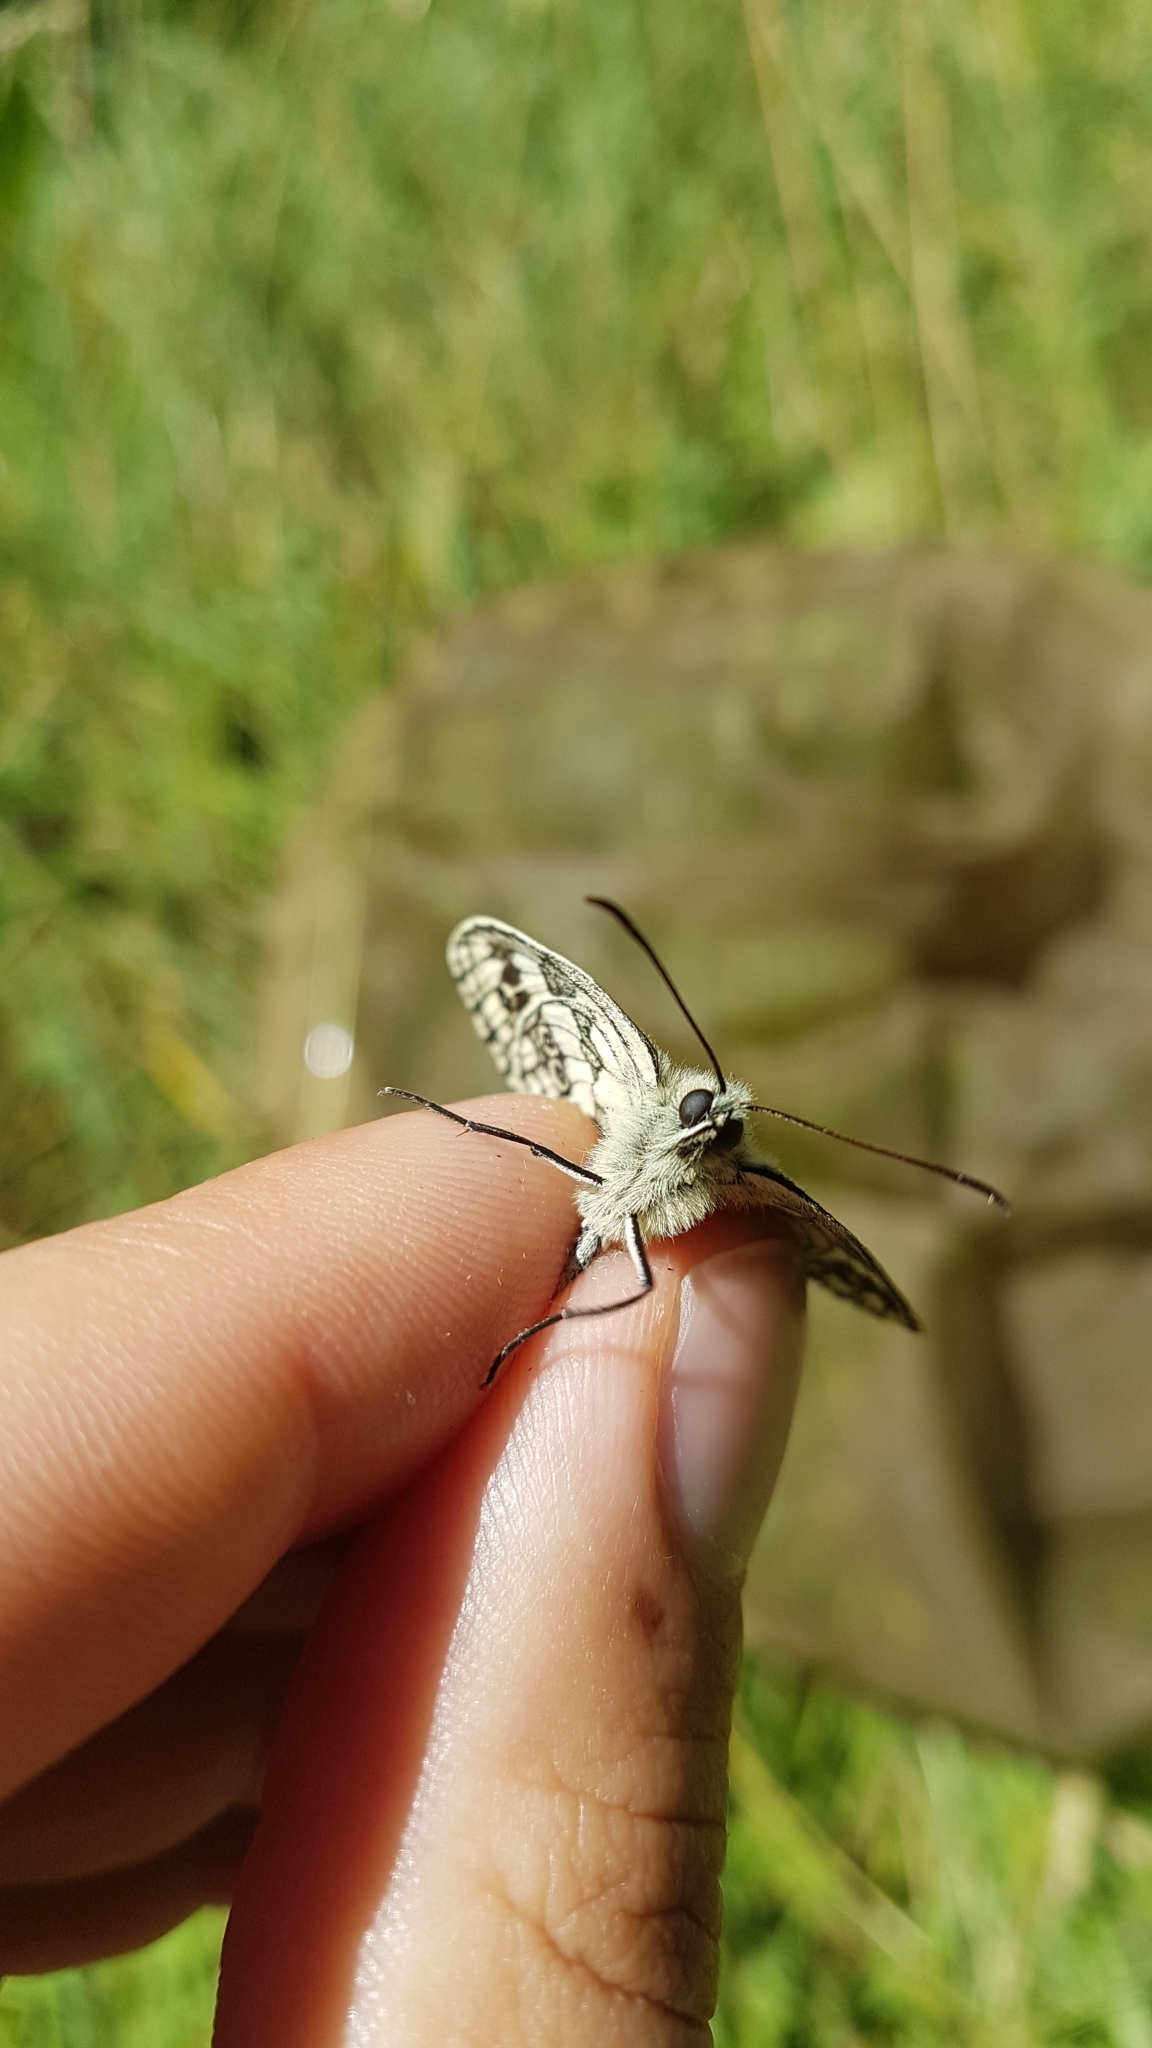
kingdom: Animalia
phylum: Arthropoda
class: Insecta
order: Lepidoptera
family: Nymphalidae
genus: Melanargia
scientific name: Melanargia galathea
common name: Marbled white
